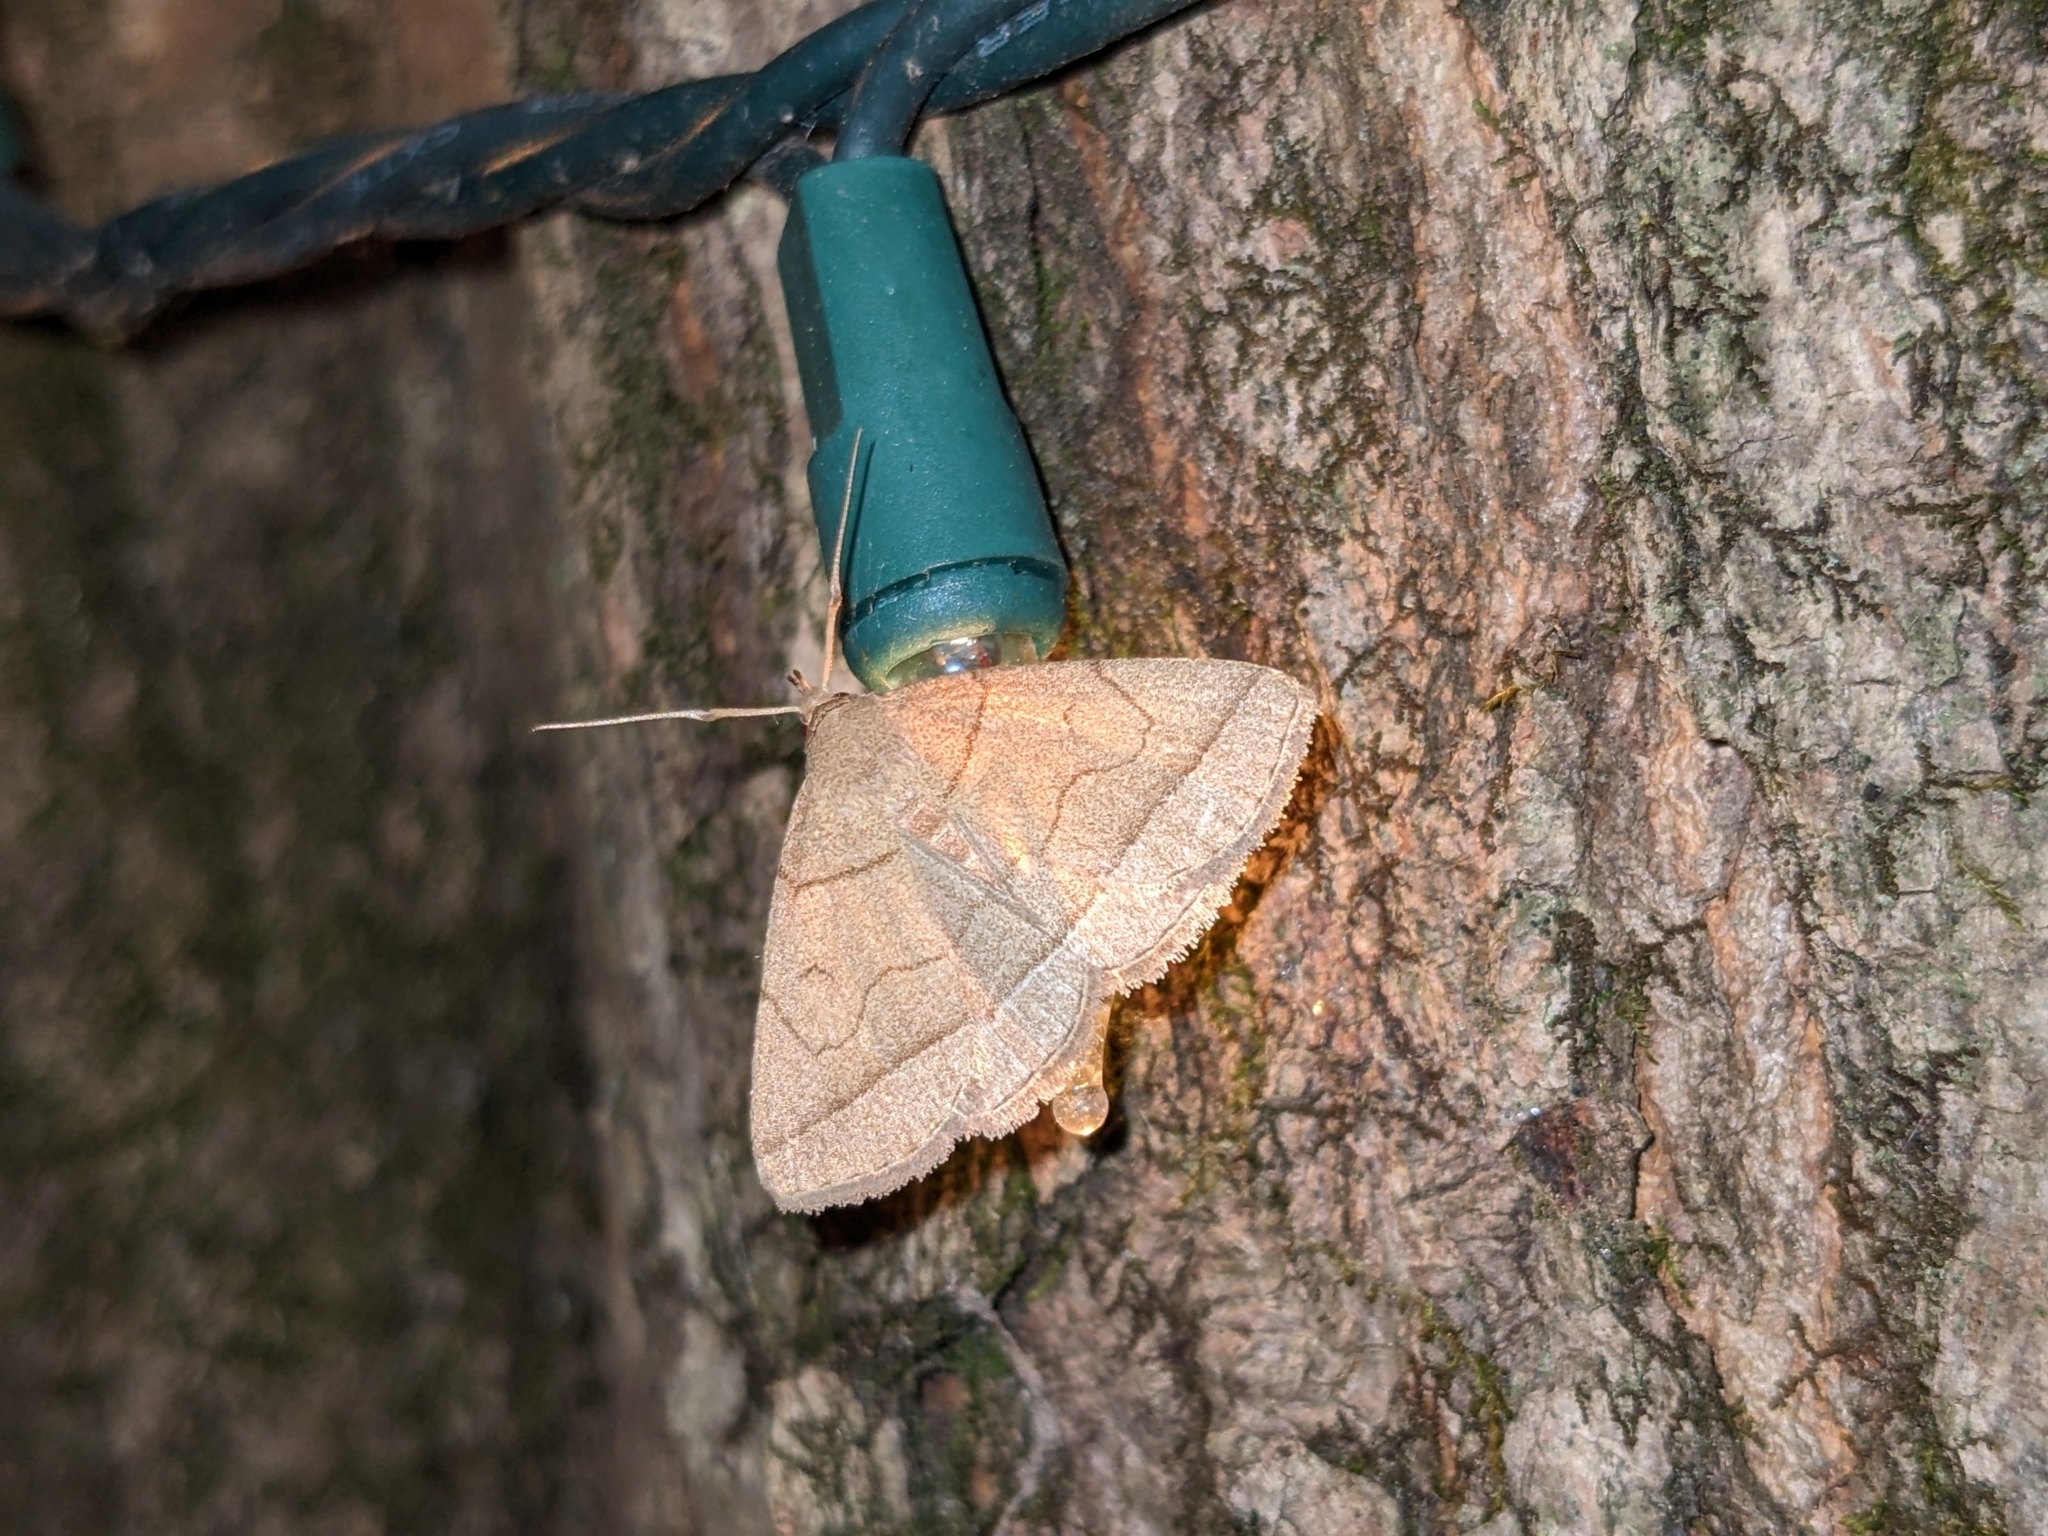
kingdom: Animalia
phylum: Arthropoda
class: Insecta
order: Lepidoptera
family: Erebidae
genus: Zanclognatha
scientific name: Zanclognatha cruralis
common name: Early fan-foot
